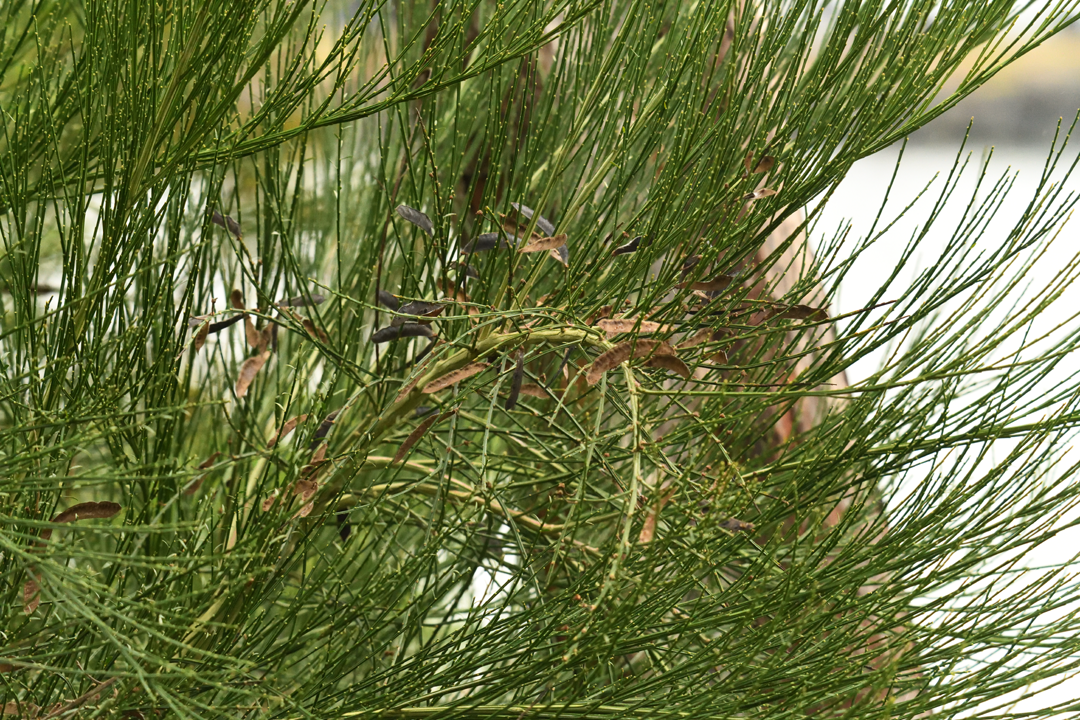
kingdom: Plantae
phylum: Tracheophyta
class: Magnoliopsida
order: Fabales
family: Fabaceae
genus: Cytisus
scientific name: Cytisus scoparius
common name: Scotch broom
